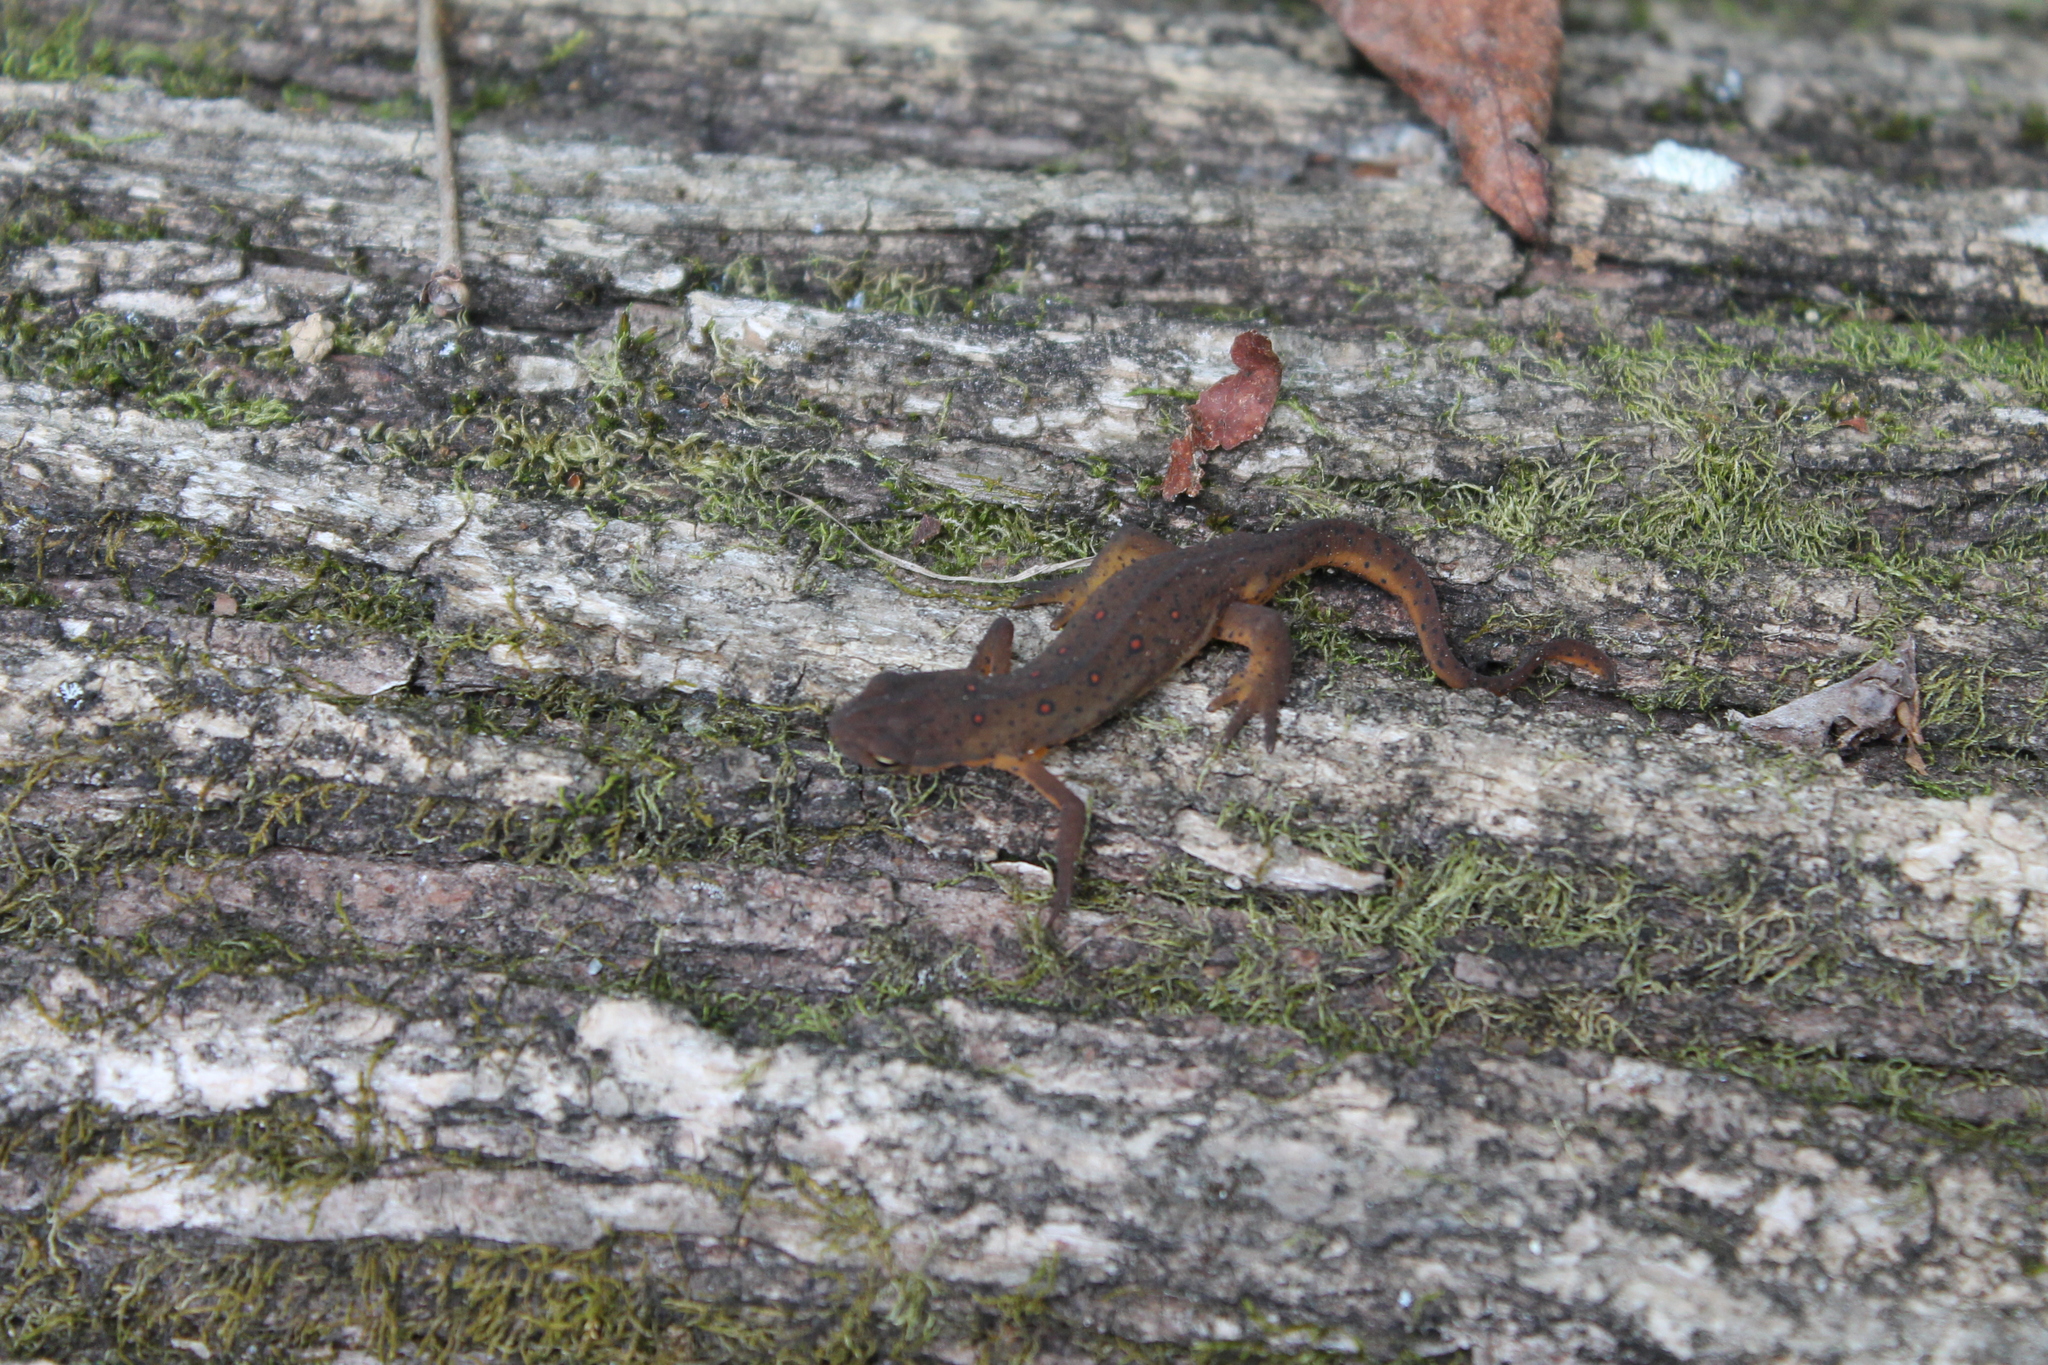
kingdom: Animalia
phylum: Chordata
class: Amphibia
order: Caudata
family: Salamandridae
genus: Notophthalmus
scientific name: Notophthalmus viridescens
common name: Eastern newt
